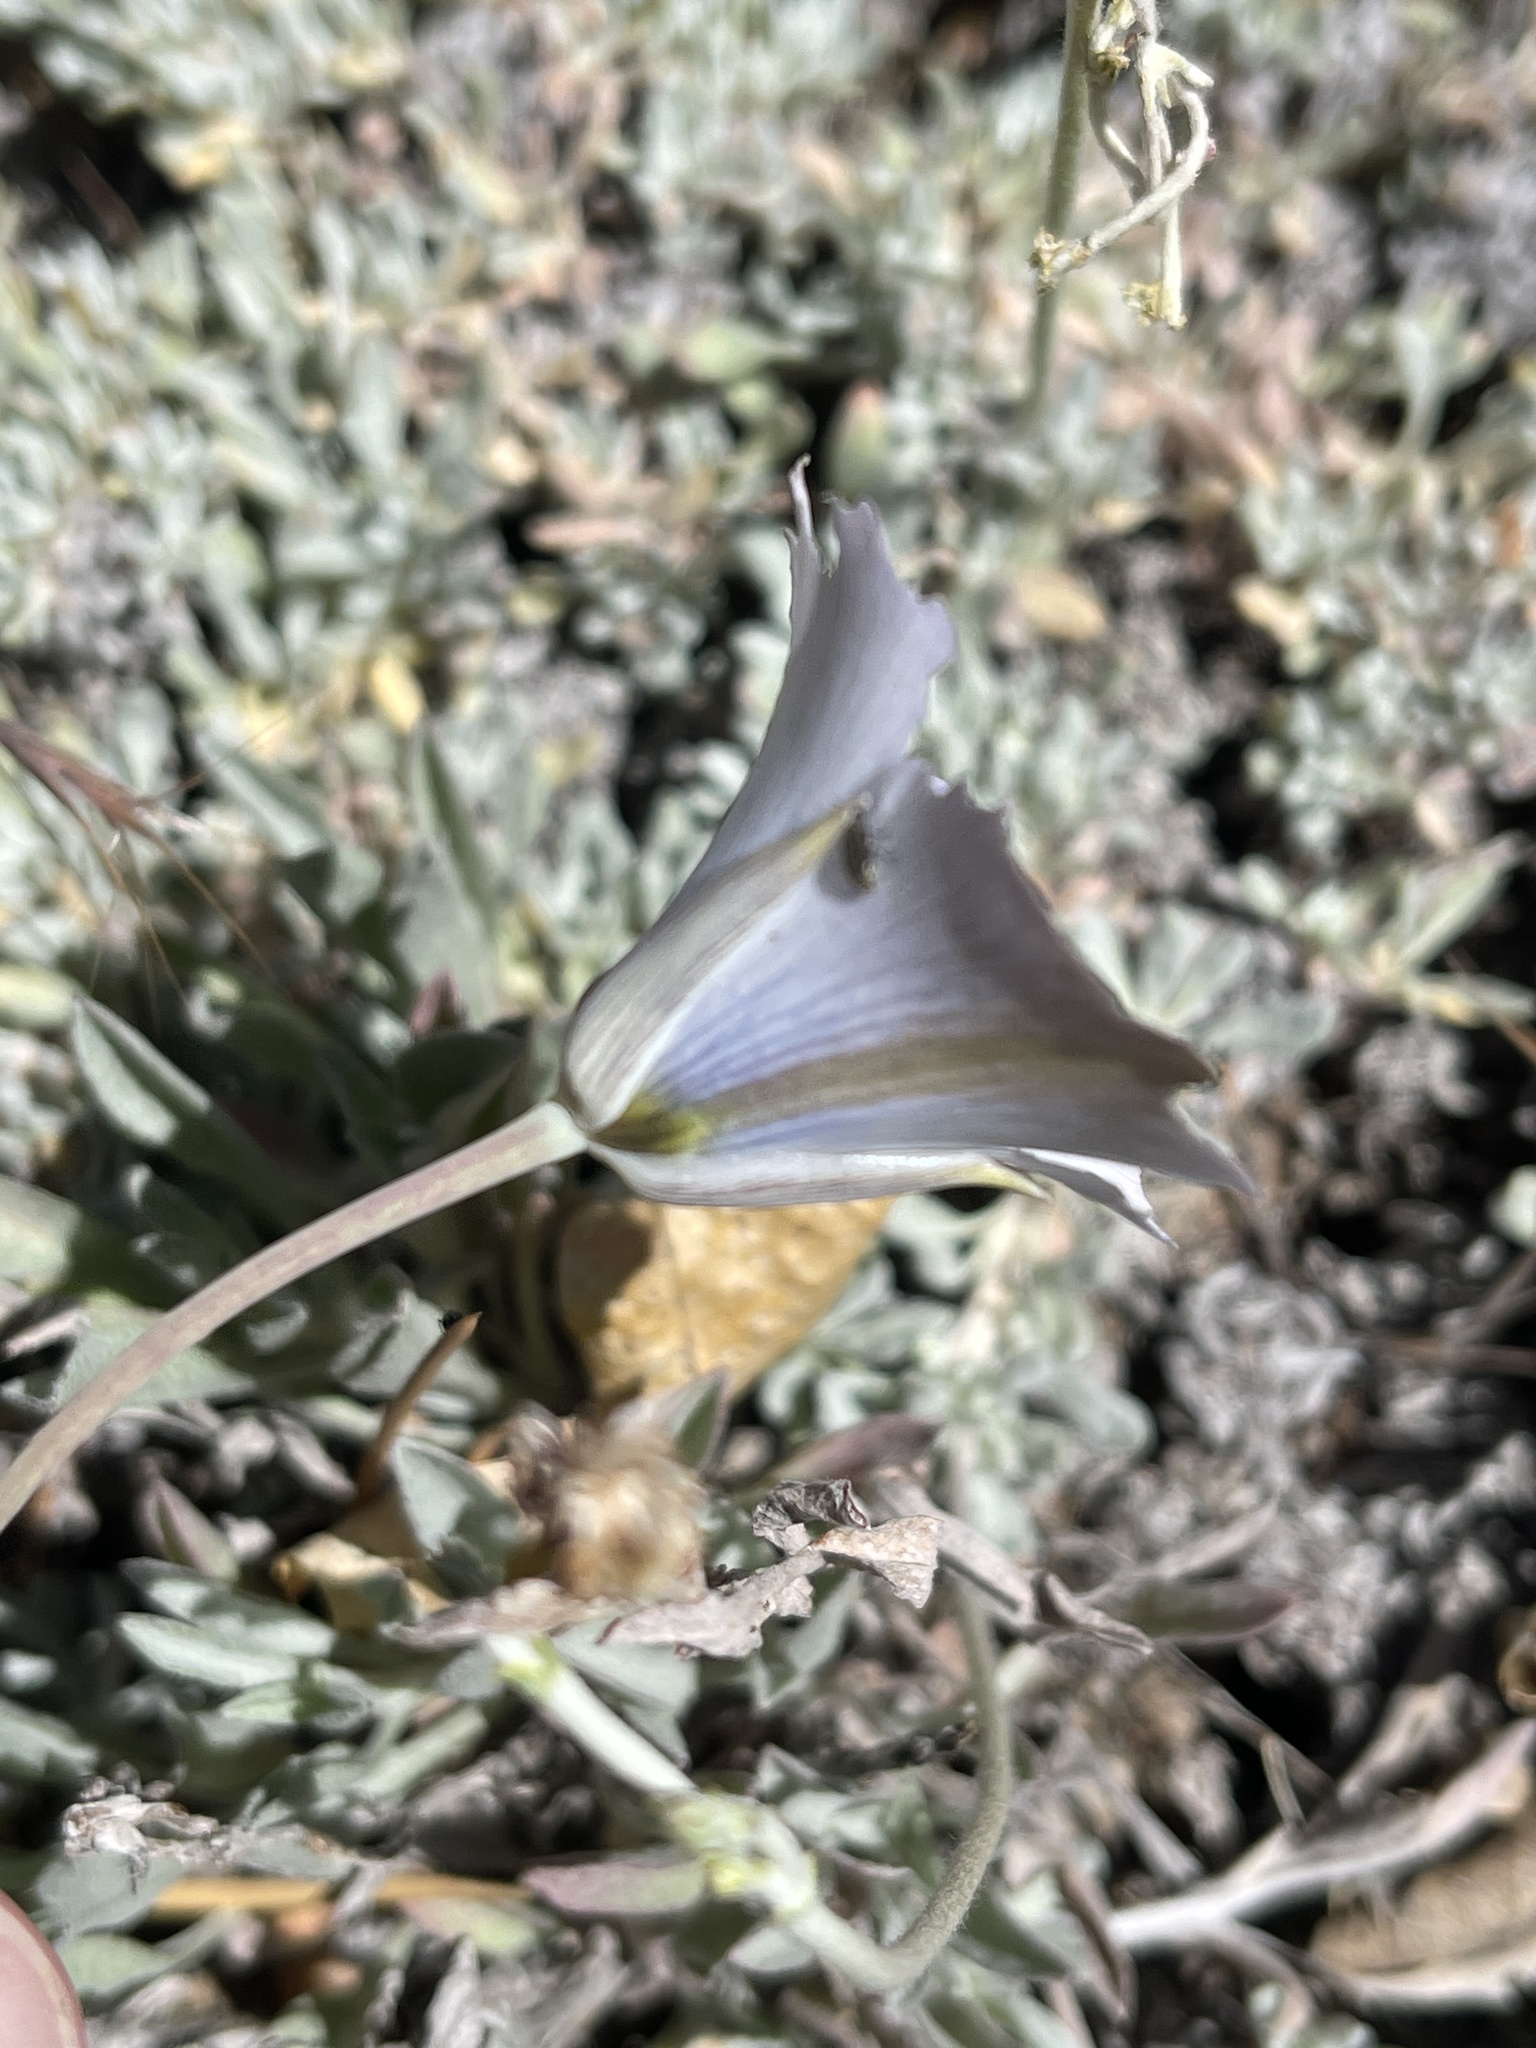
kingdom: Plantae
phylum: Tracheophyta
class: Liliopsida
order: Liliales
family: Liliaceae
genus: Calochortus
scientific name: Calochortus invenustus
